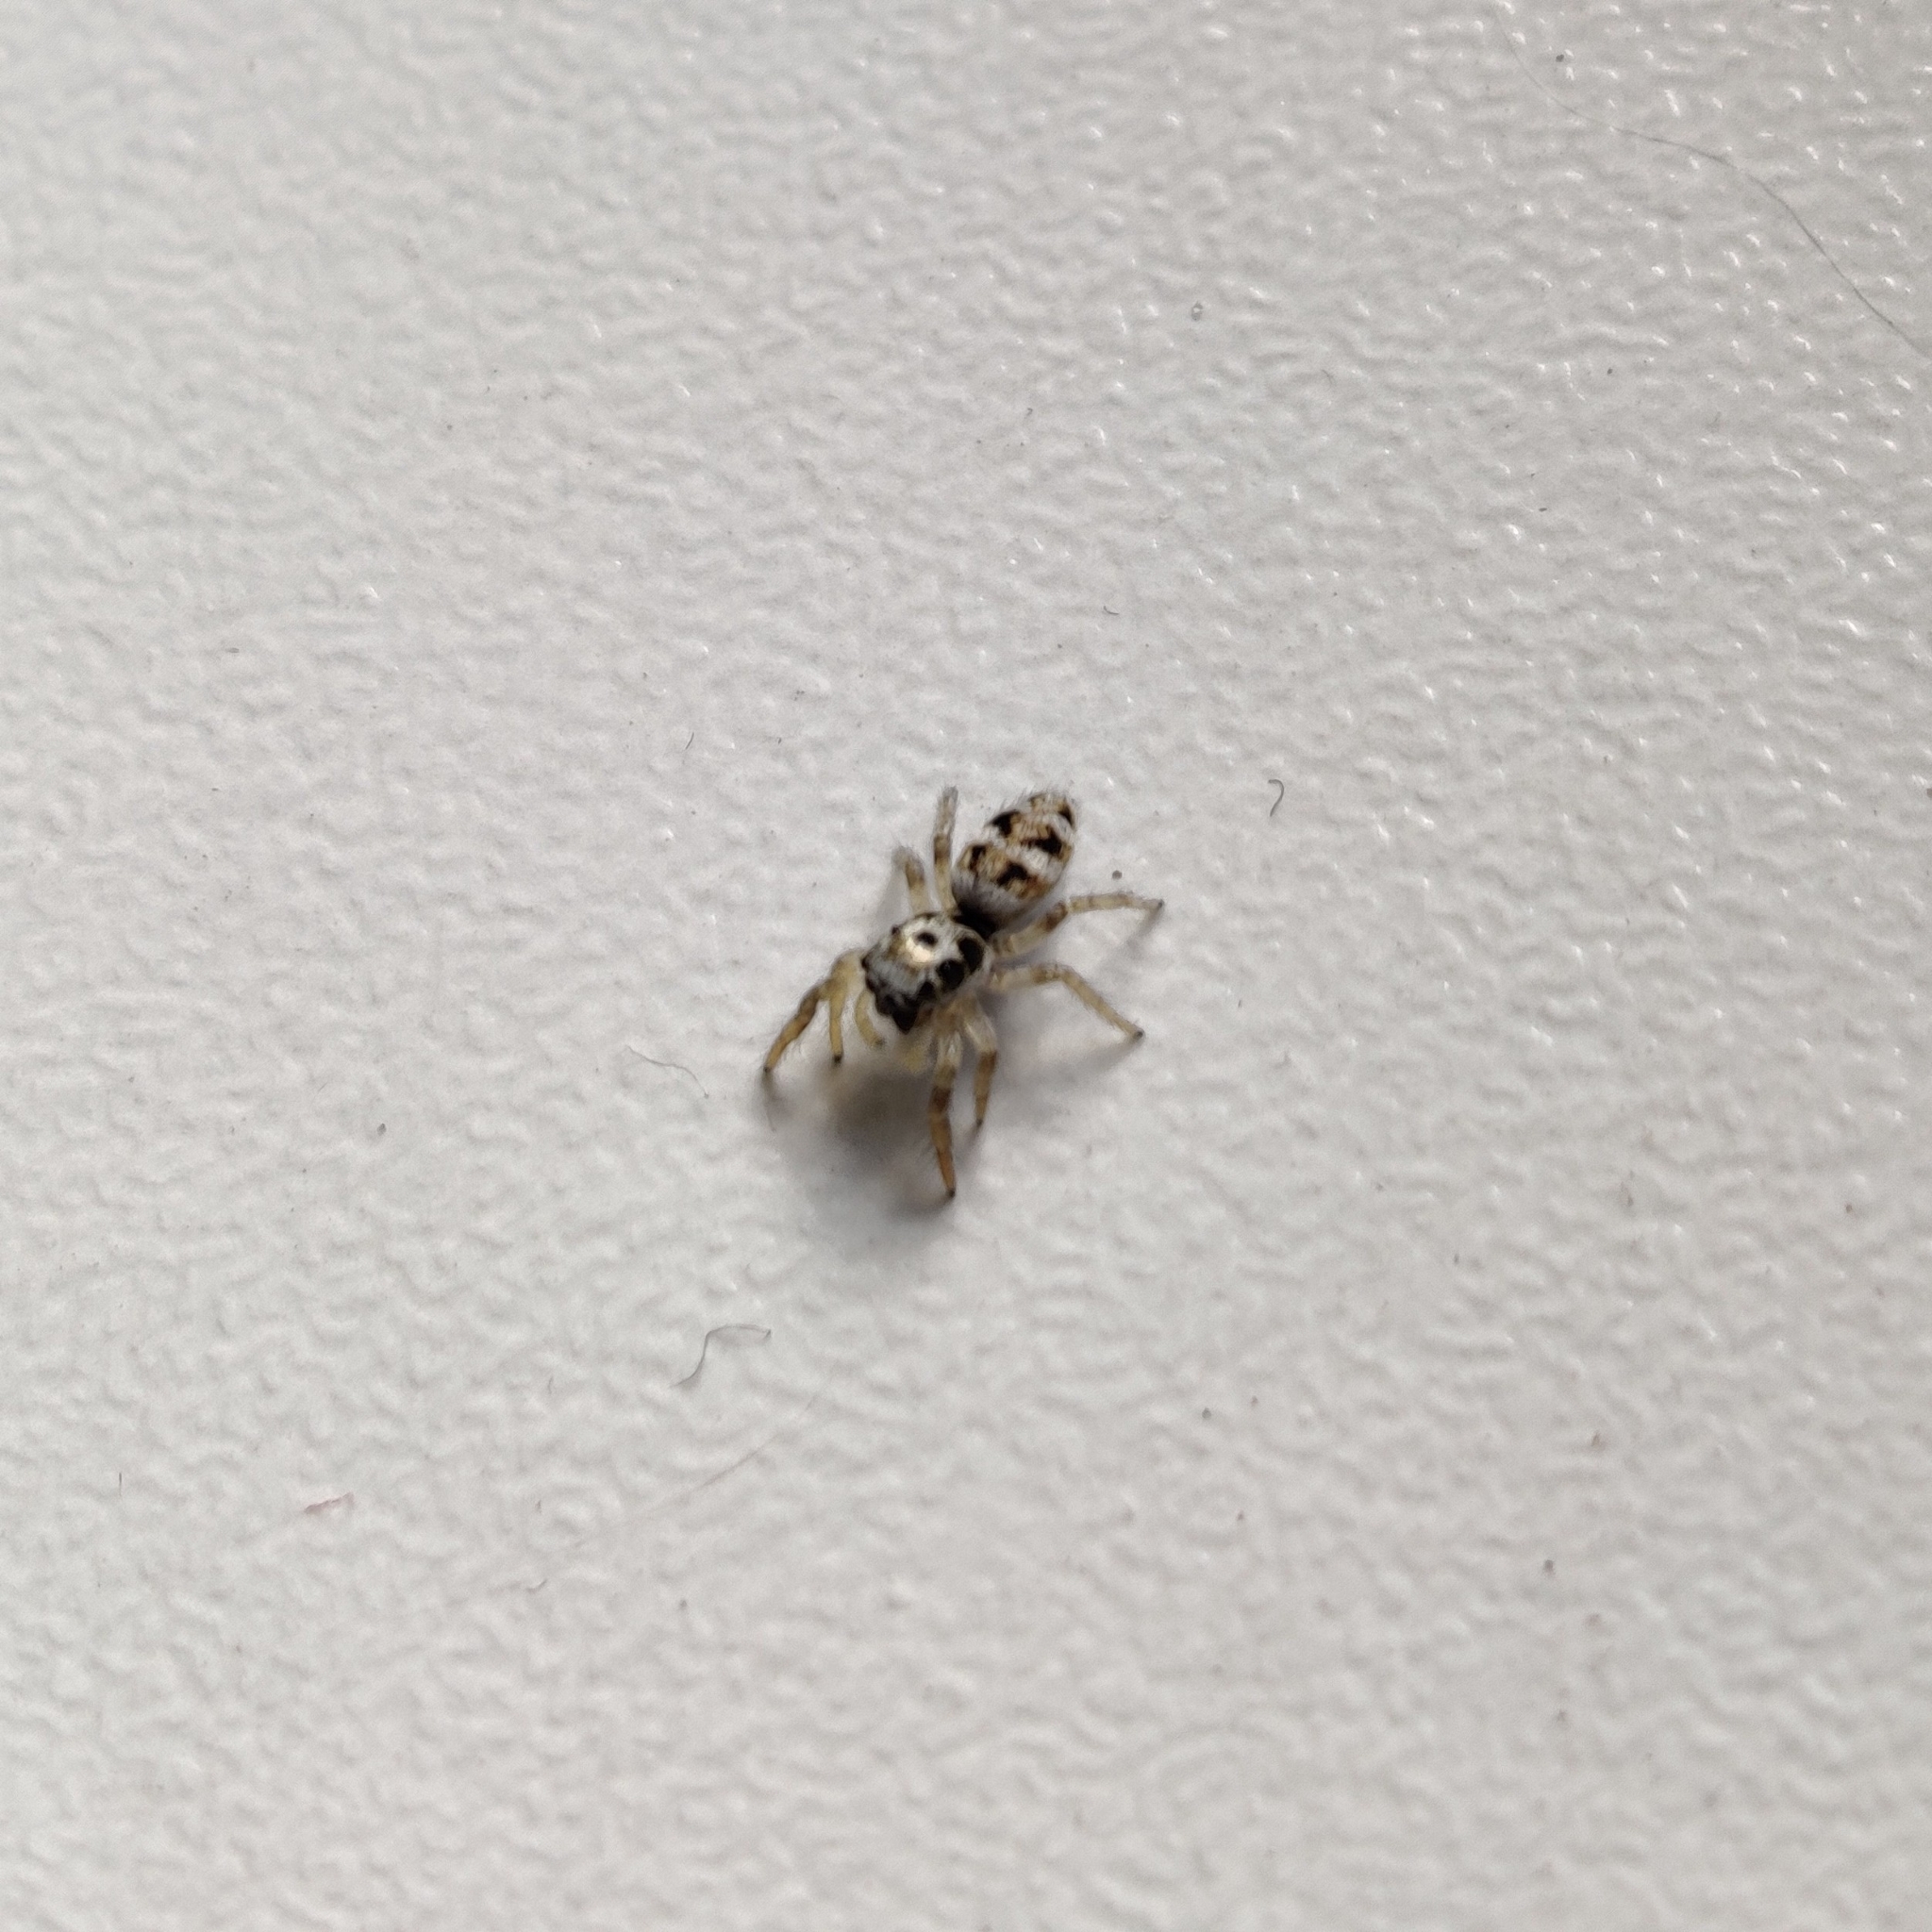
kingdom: Animalia
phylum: Arthropoda
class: Arachnida
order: Araneae
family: Salticidae
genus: Salticus
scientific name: Salticus scenicus
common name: Zebra jumper
